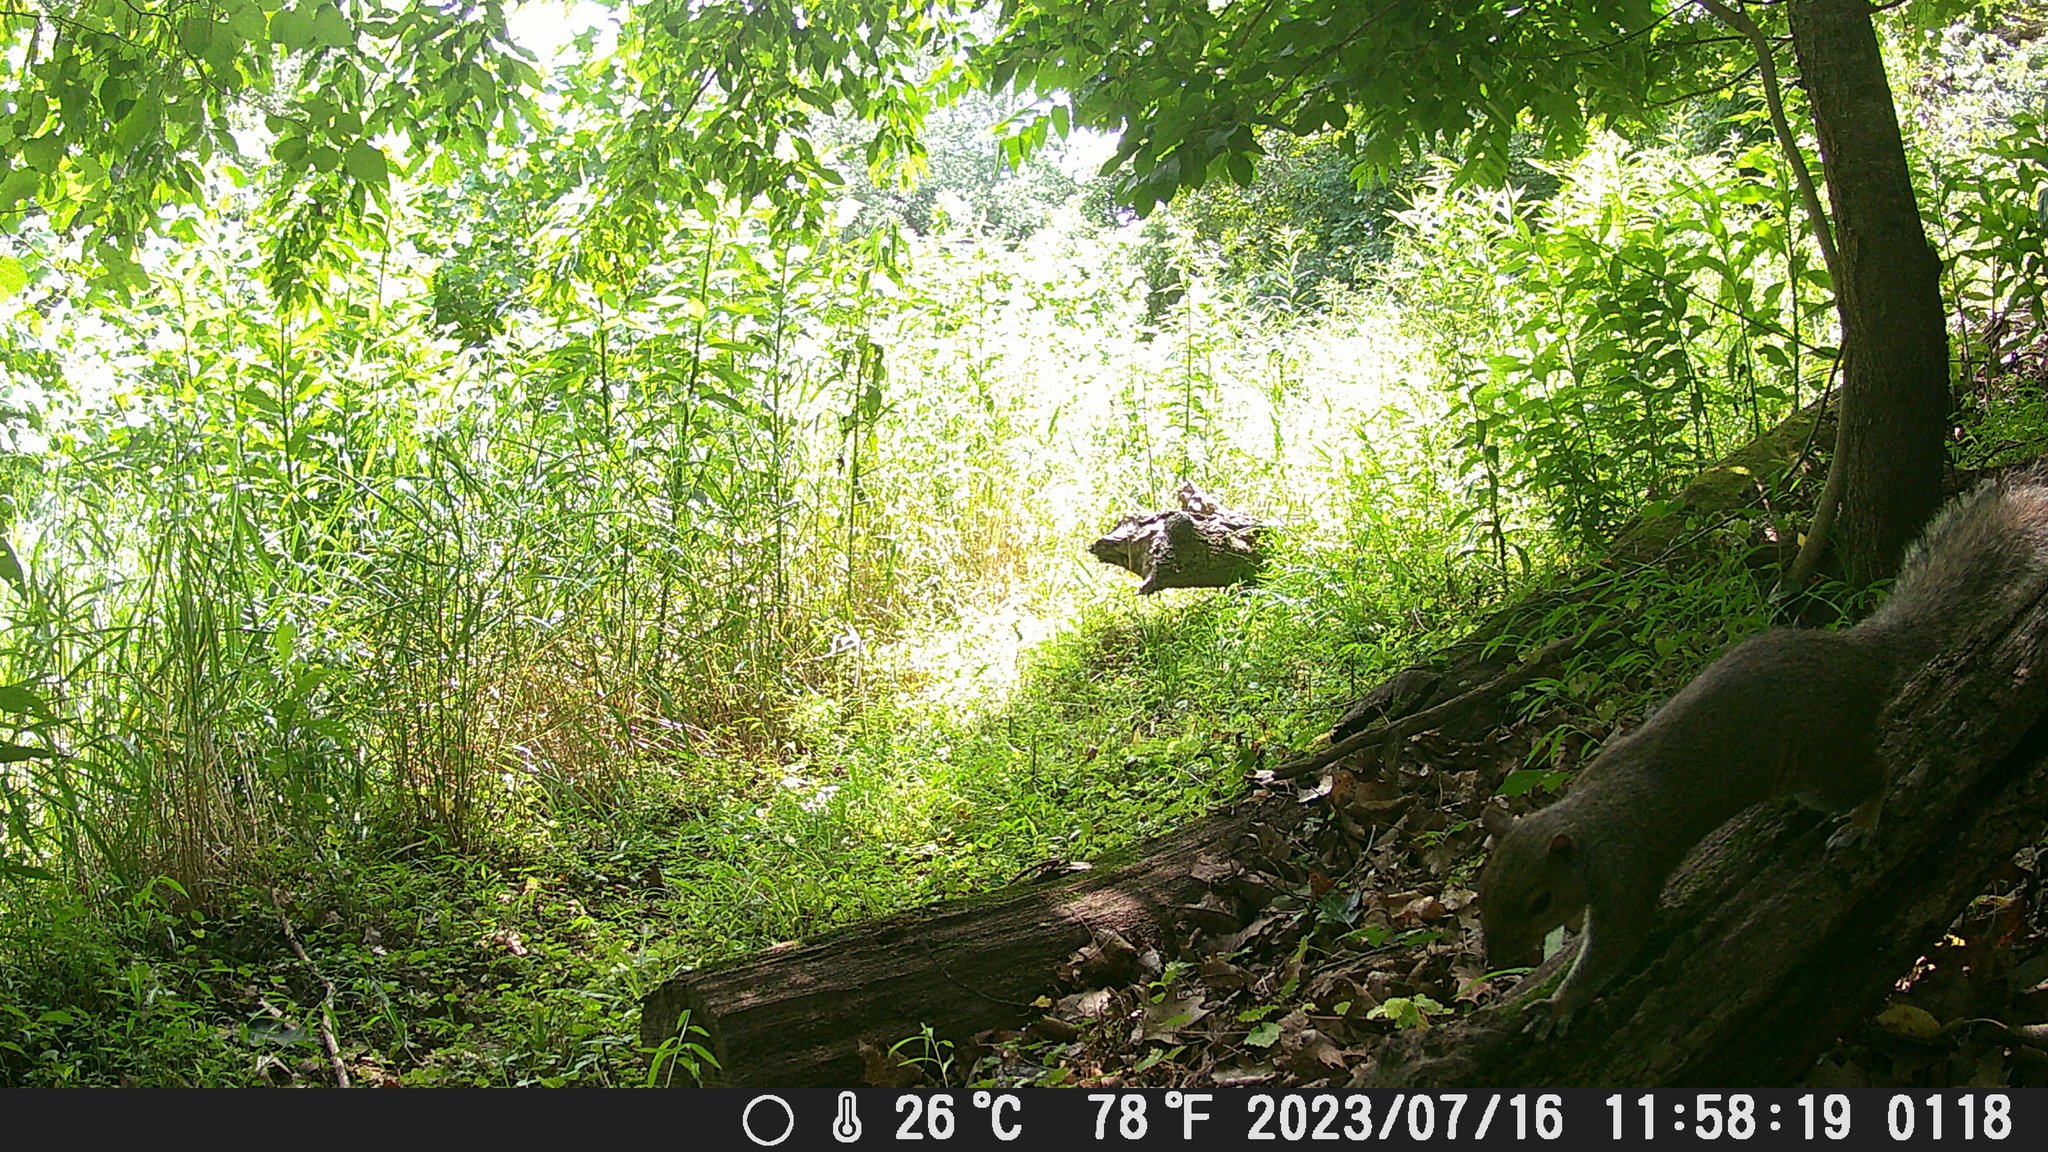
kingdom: Animalia
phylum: Chordata
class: Mammalia
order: Rodentia
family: Sciuridae
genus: Sciurus
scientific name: Sciurus carolinensis
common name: Eastern gray squirrel
